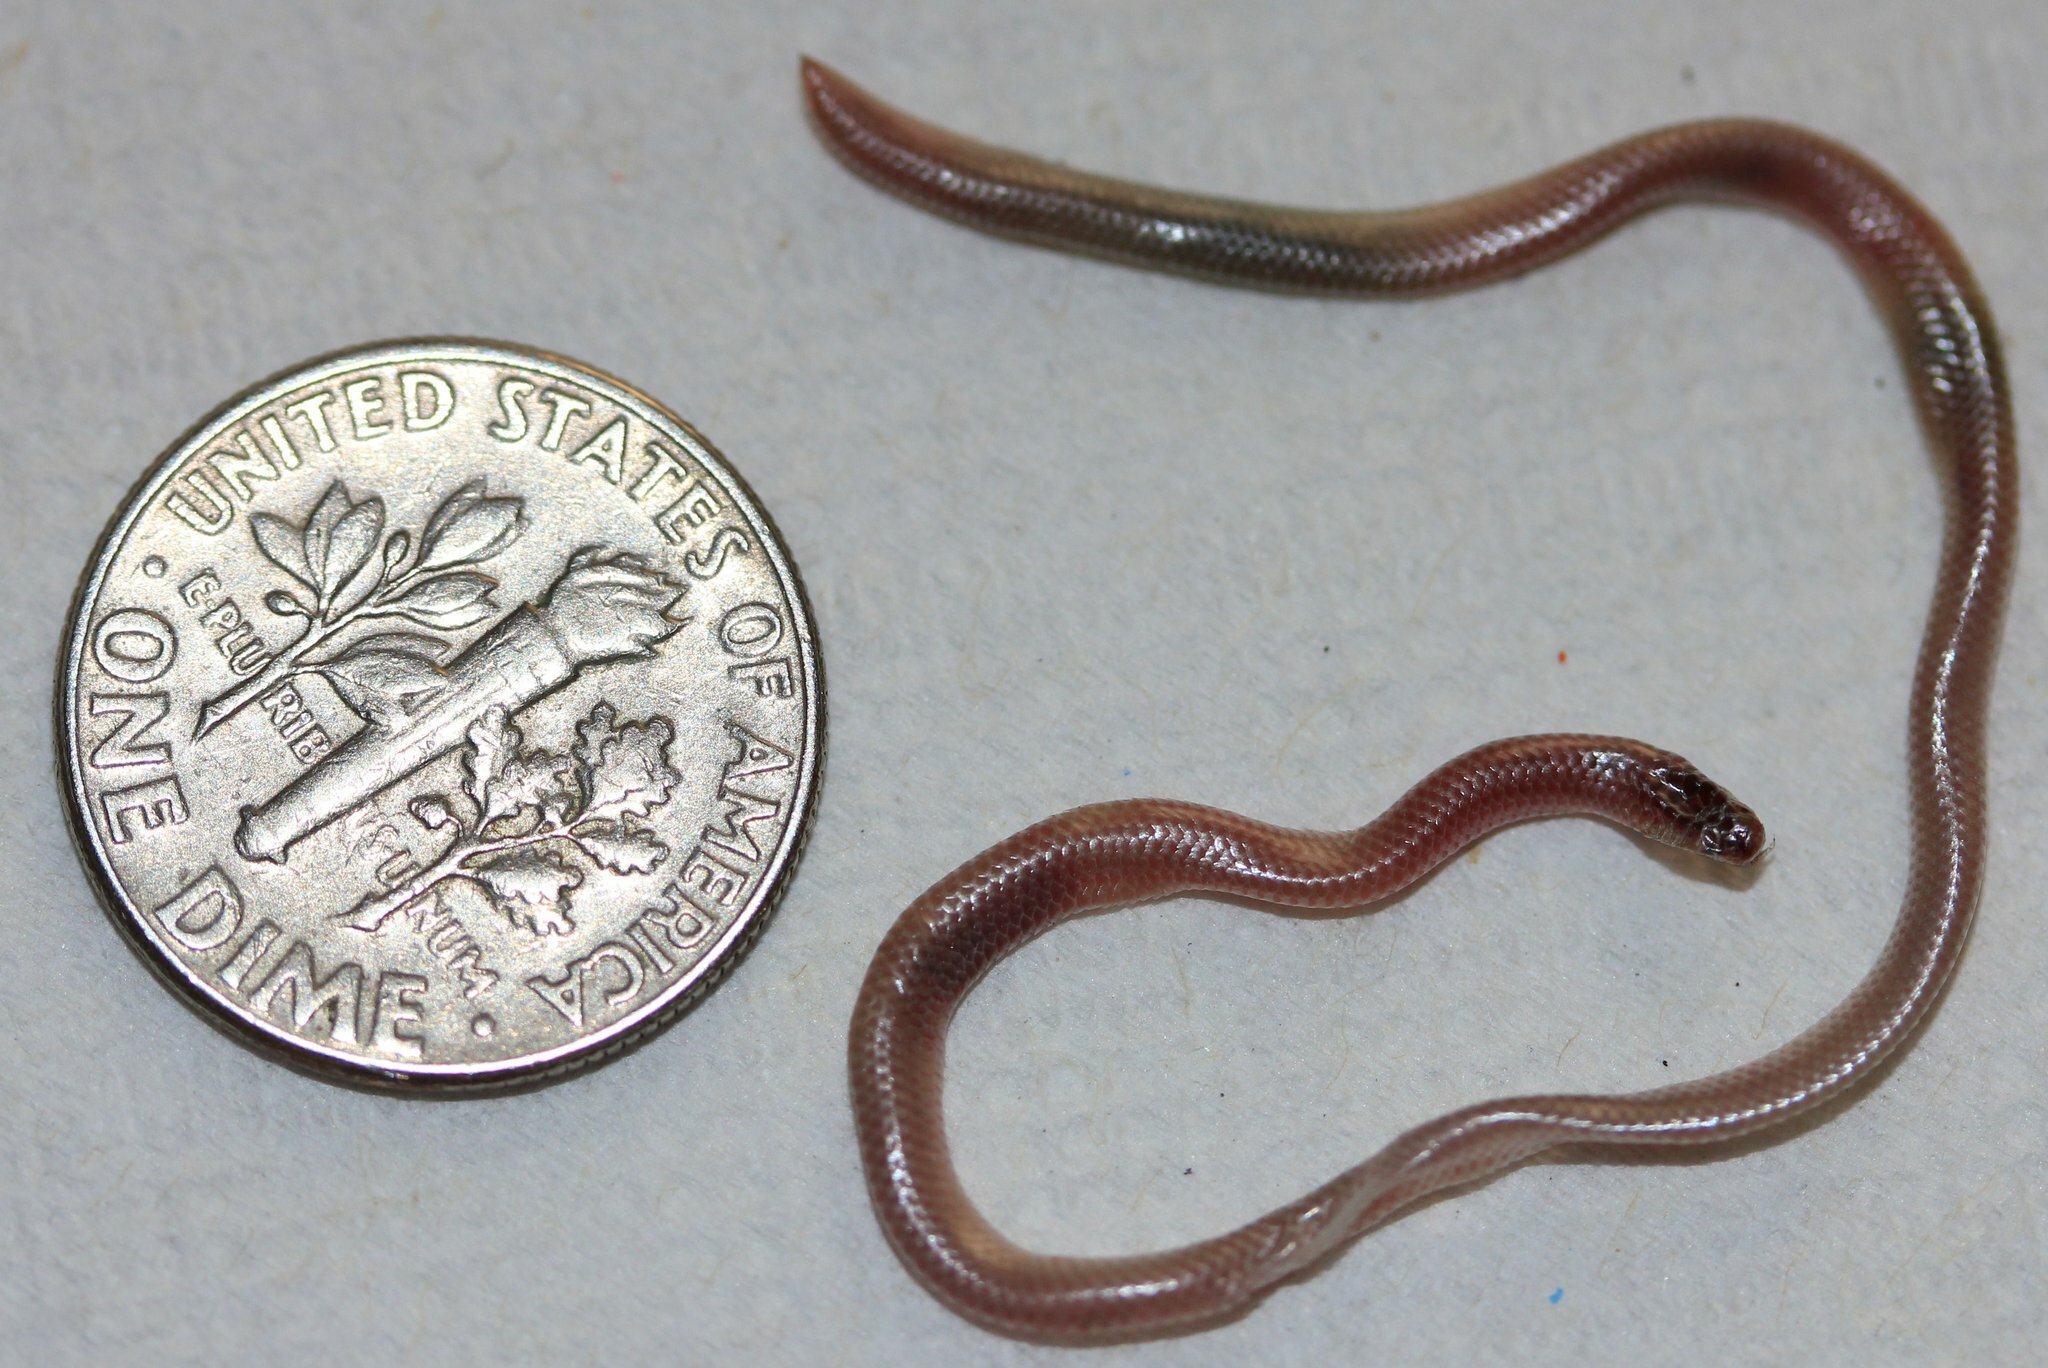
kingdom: Animalia
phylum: Chordata
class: Squamata
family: Leptotyphlopidae
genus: Rena
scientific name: Rena humilis
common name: Western threadsnake
